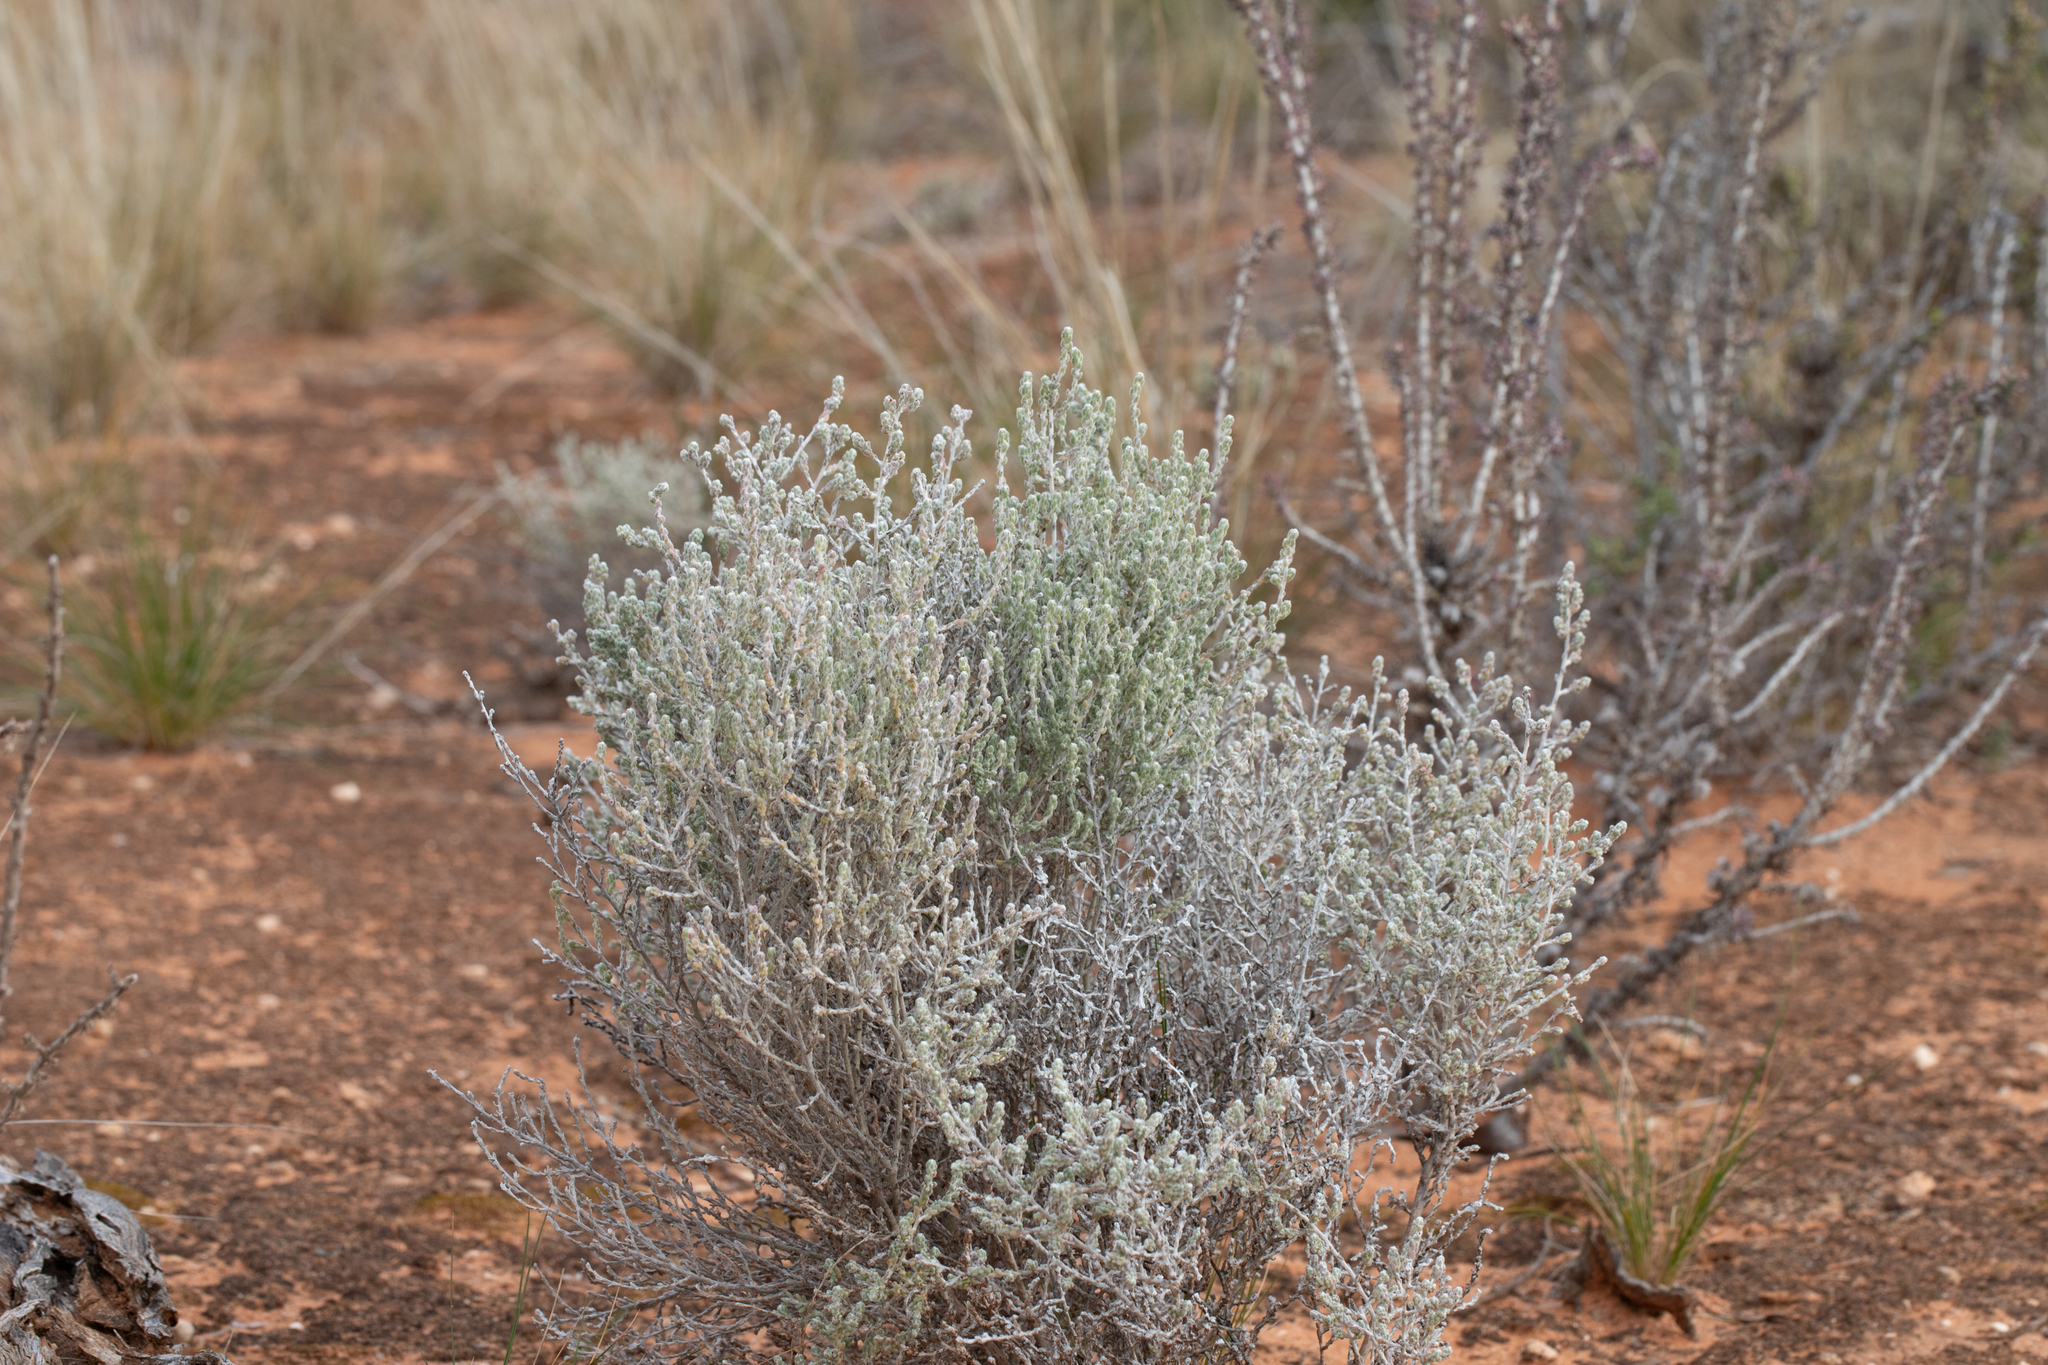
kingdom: Plantae
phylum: Tracheophyta
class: Magnoliopsida
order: Caryophyllales
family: Amaranthaceae
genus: Maireana
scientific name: Maireana radiata
